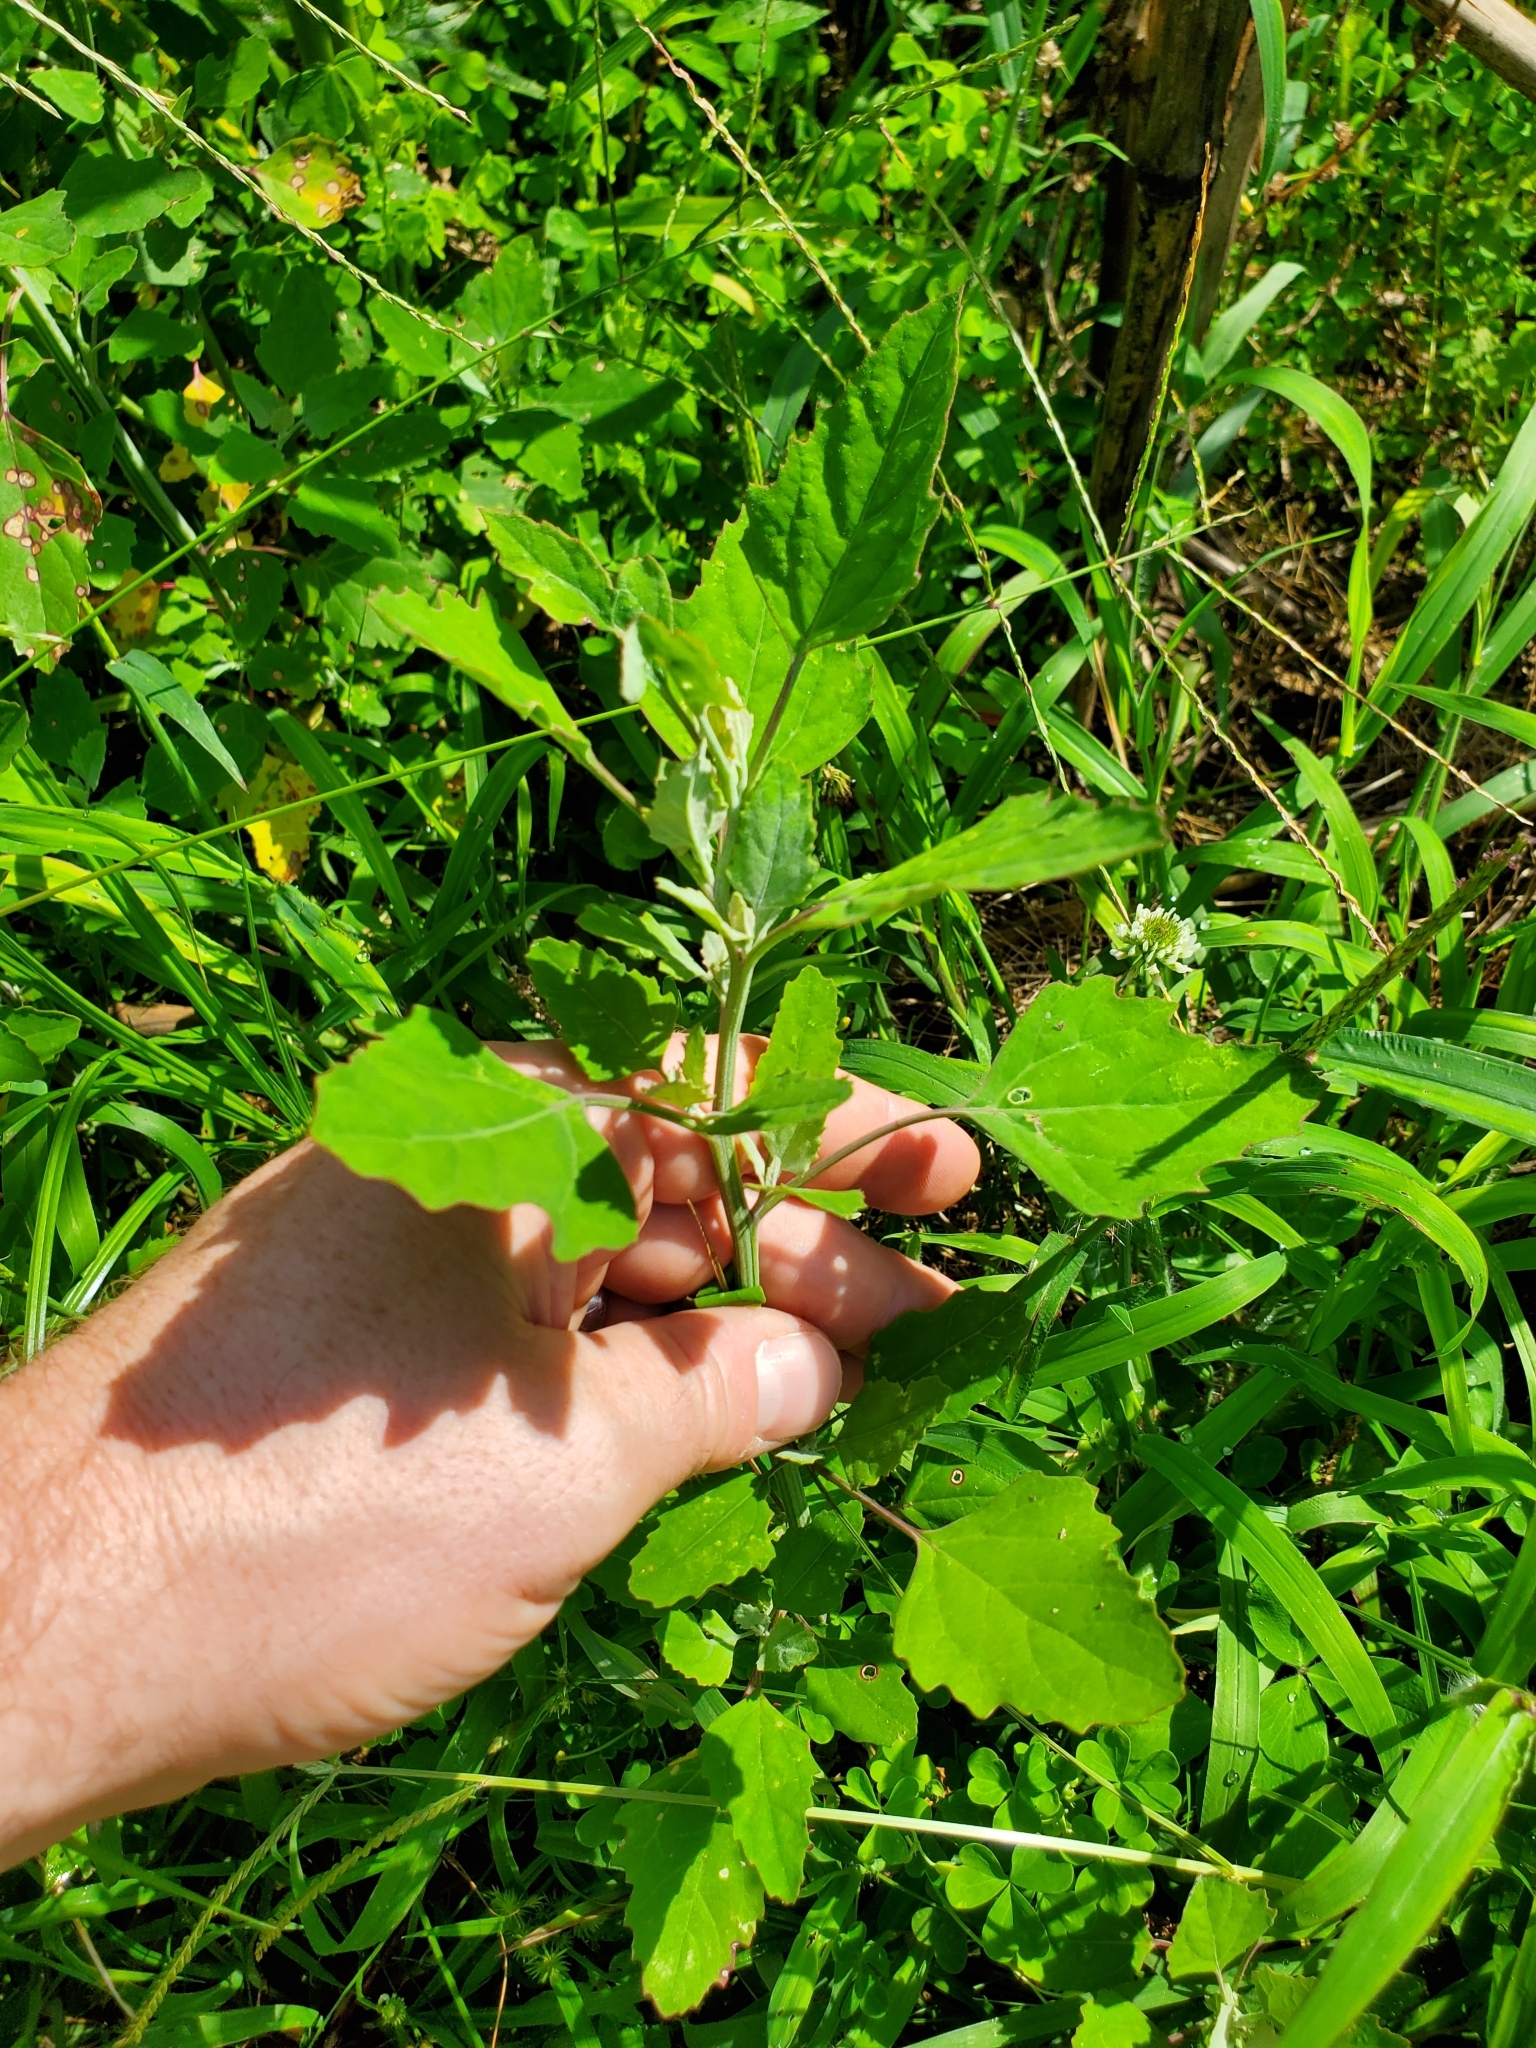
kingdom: Plantae
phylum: Tracheophyta
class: Magnoliopsida
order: Caryophyllales
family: Amaranthaceae
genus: Chenopodium
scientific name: Chenopodium album
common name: Fat-hen
